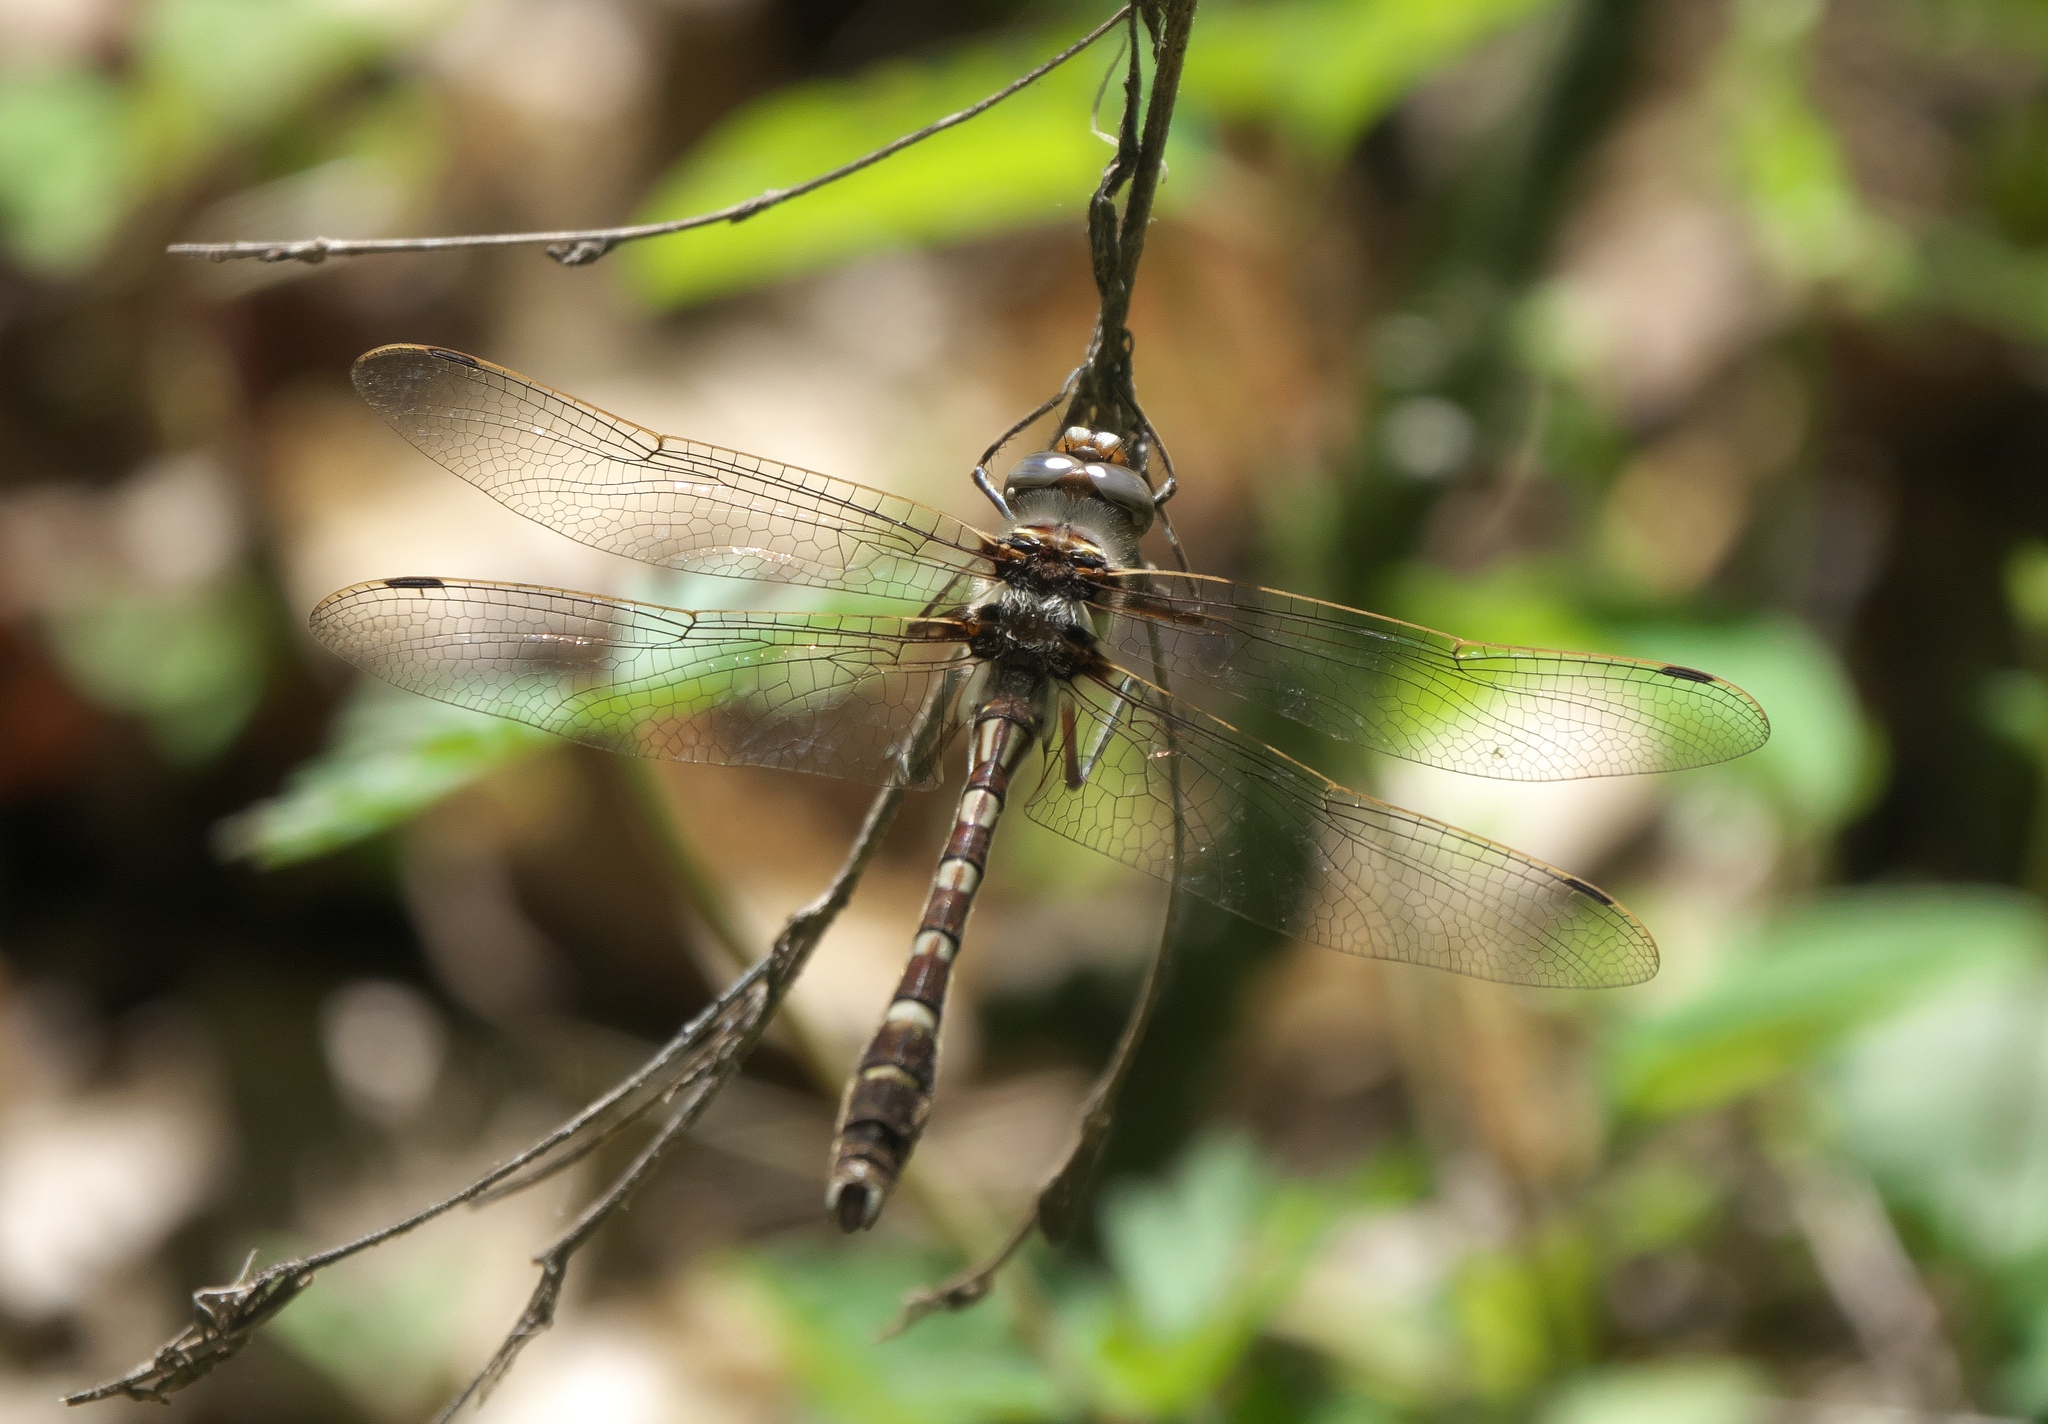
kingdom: Animalia
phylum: Arthropoda
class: Insecta
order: Odonata
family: Macromiidae
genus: Didymops
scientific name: Didymops transversa
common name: Stream cruiser
